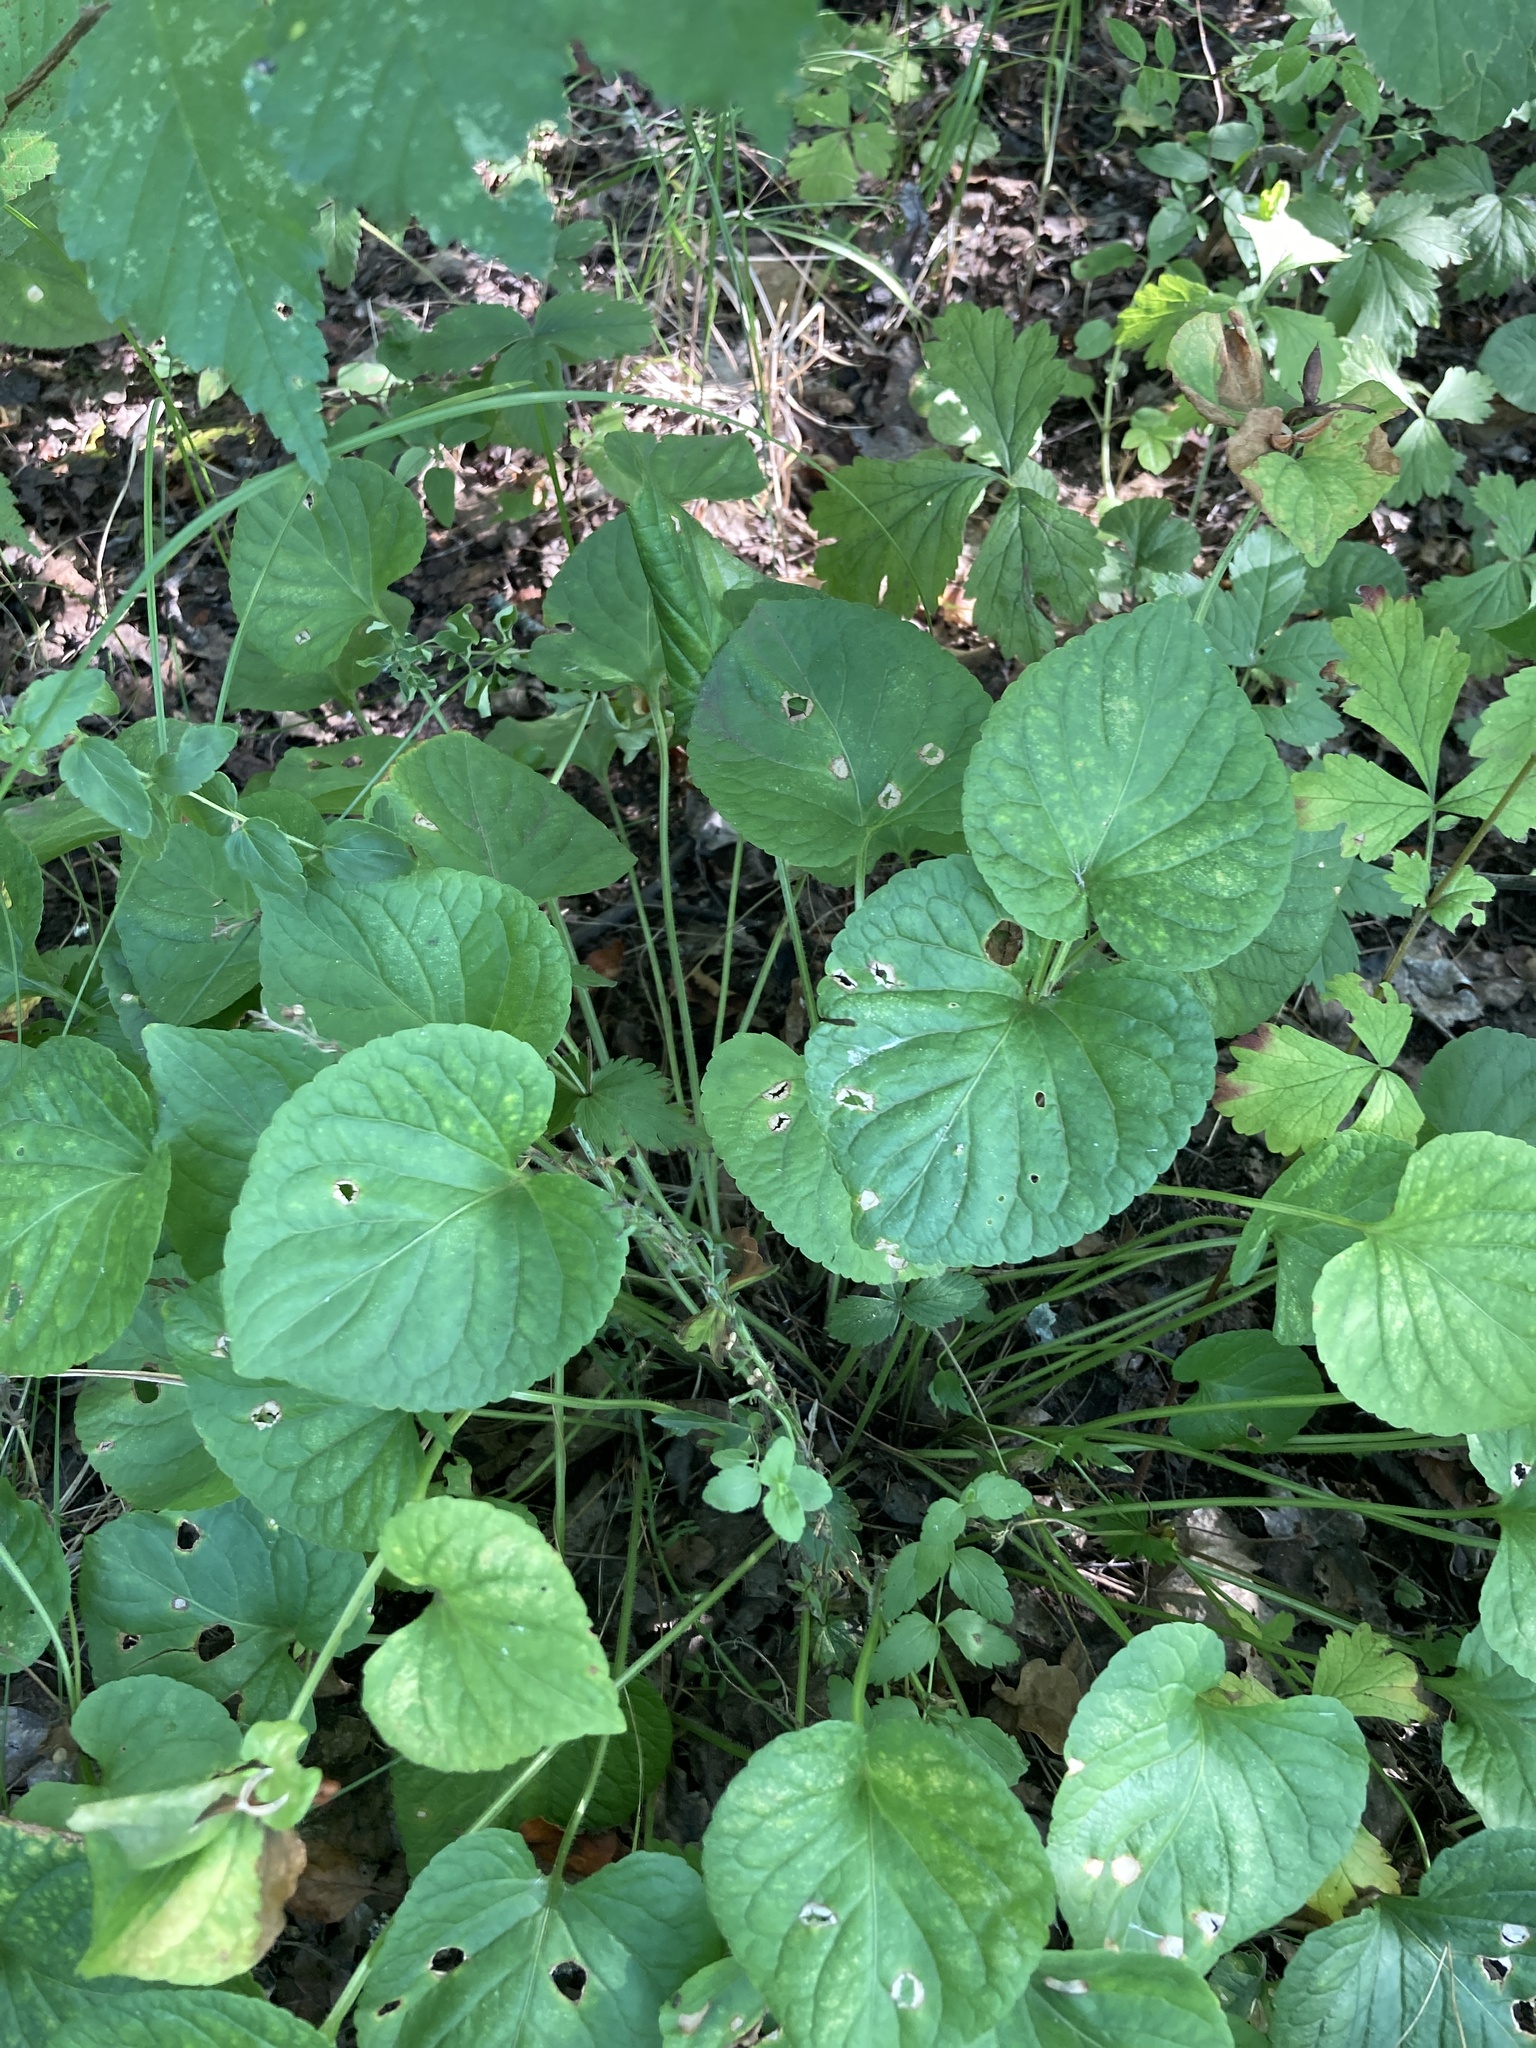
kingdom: Plantae
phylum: Tracheophyta
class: Magnoliopsida
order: Malpighiales
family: Violaceae
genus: Viola
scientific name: Viola mirabilis
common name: Wonder violet
